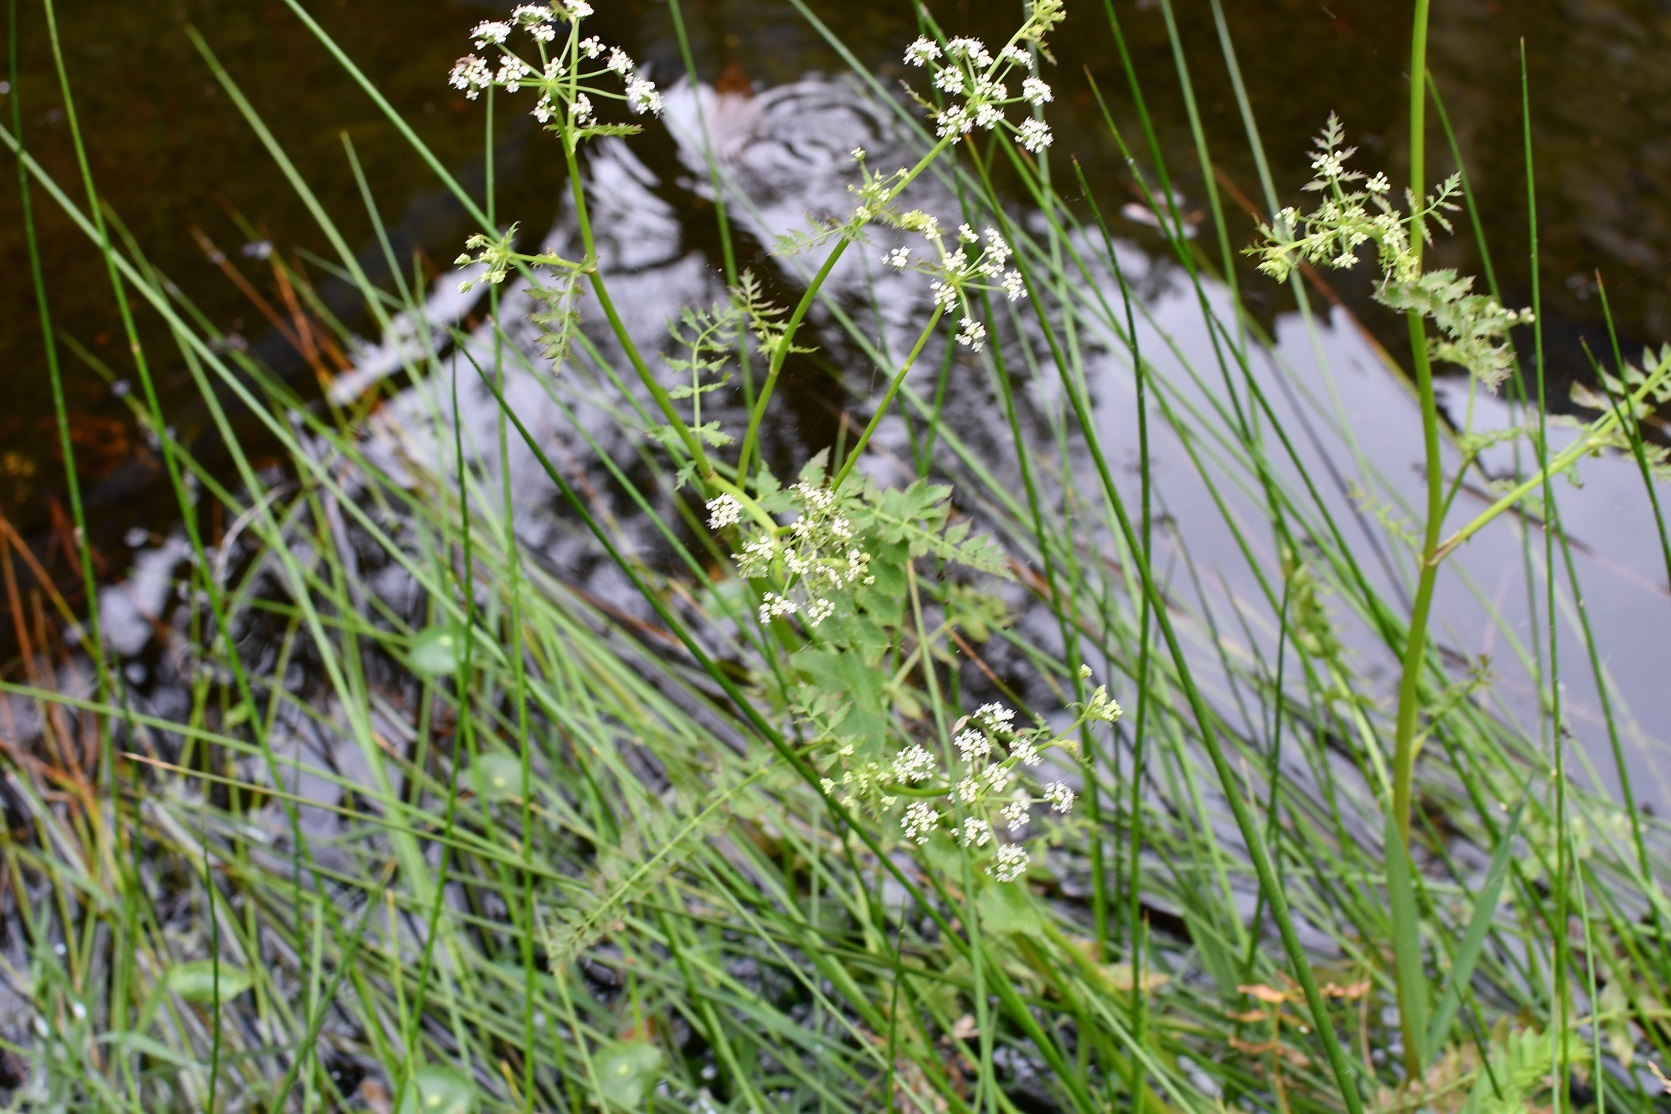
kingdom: Plantae
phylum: Tracheophyta
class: Magnoliopsida
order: Apiales
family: Apiaceae
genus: Berula
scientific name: Berula erecta
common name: Lesser water-parsnip
